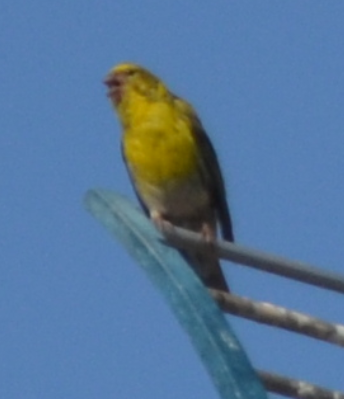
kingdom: Animalia
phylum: Chordata
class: Aves
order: Passeriformes
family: Fringillidae
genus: Serinus
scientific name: Serinus serinus
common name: European serin
